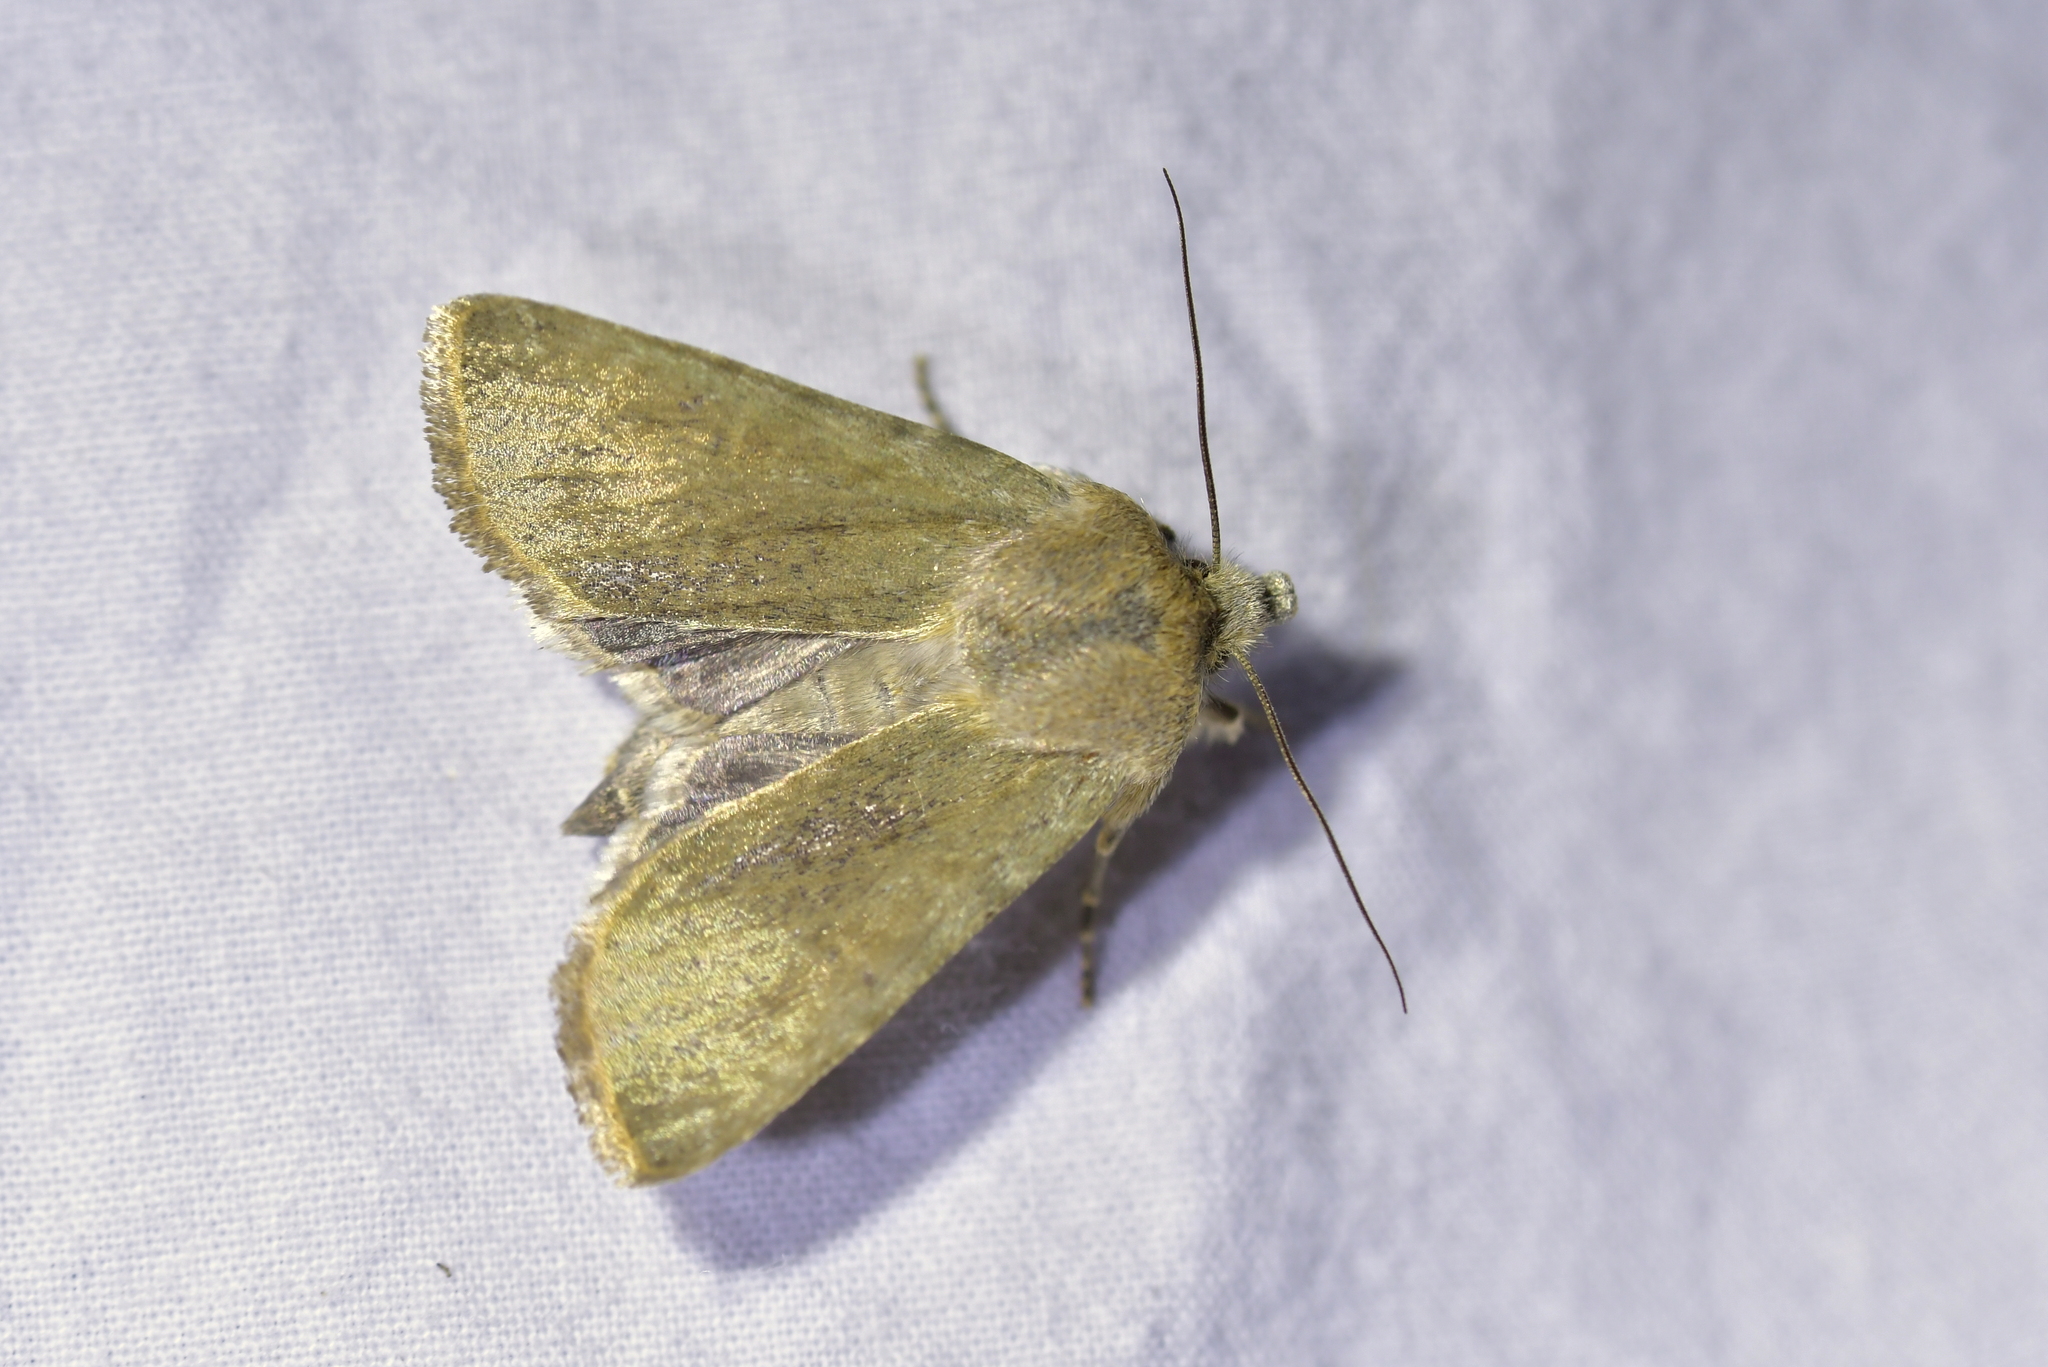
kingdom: Animalia
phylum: Arthropoda
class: Insecta
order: Lepidoptera
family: Noctuidae
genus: Physetica
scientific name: Physetica caerulea
